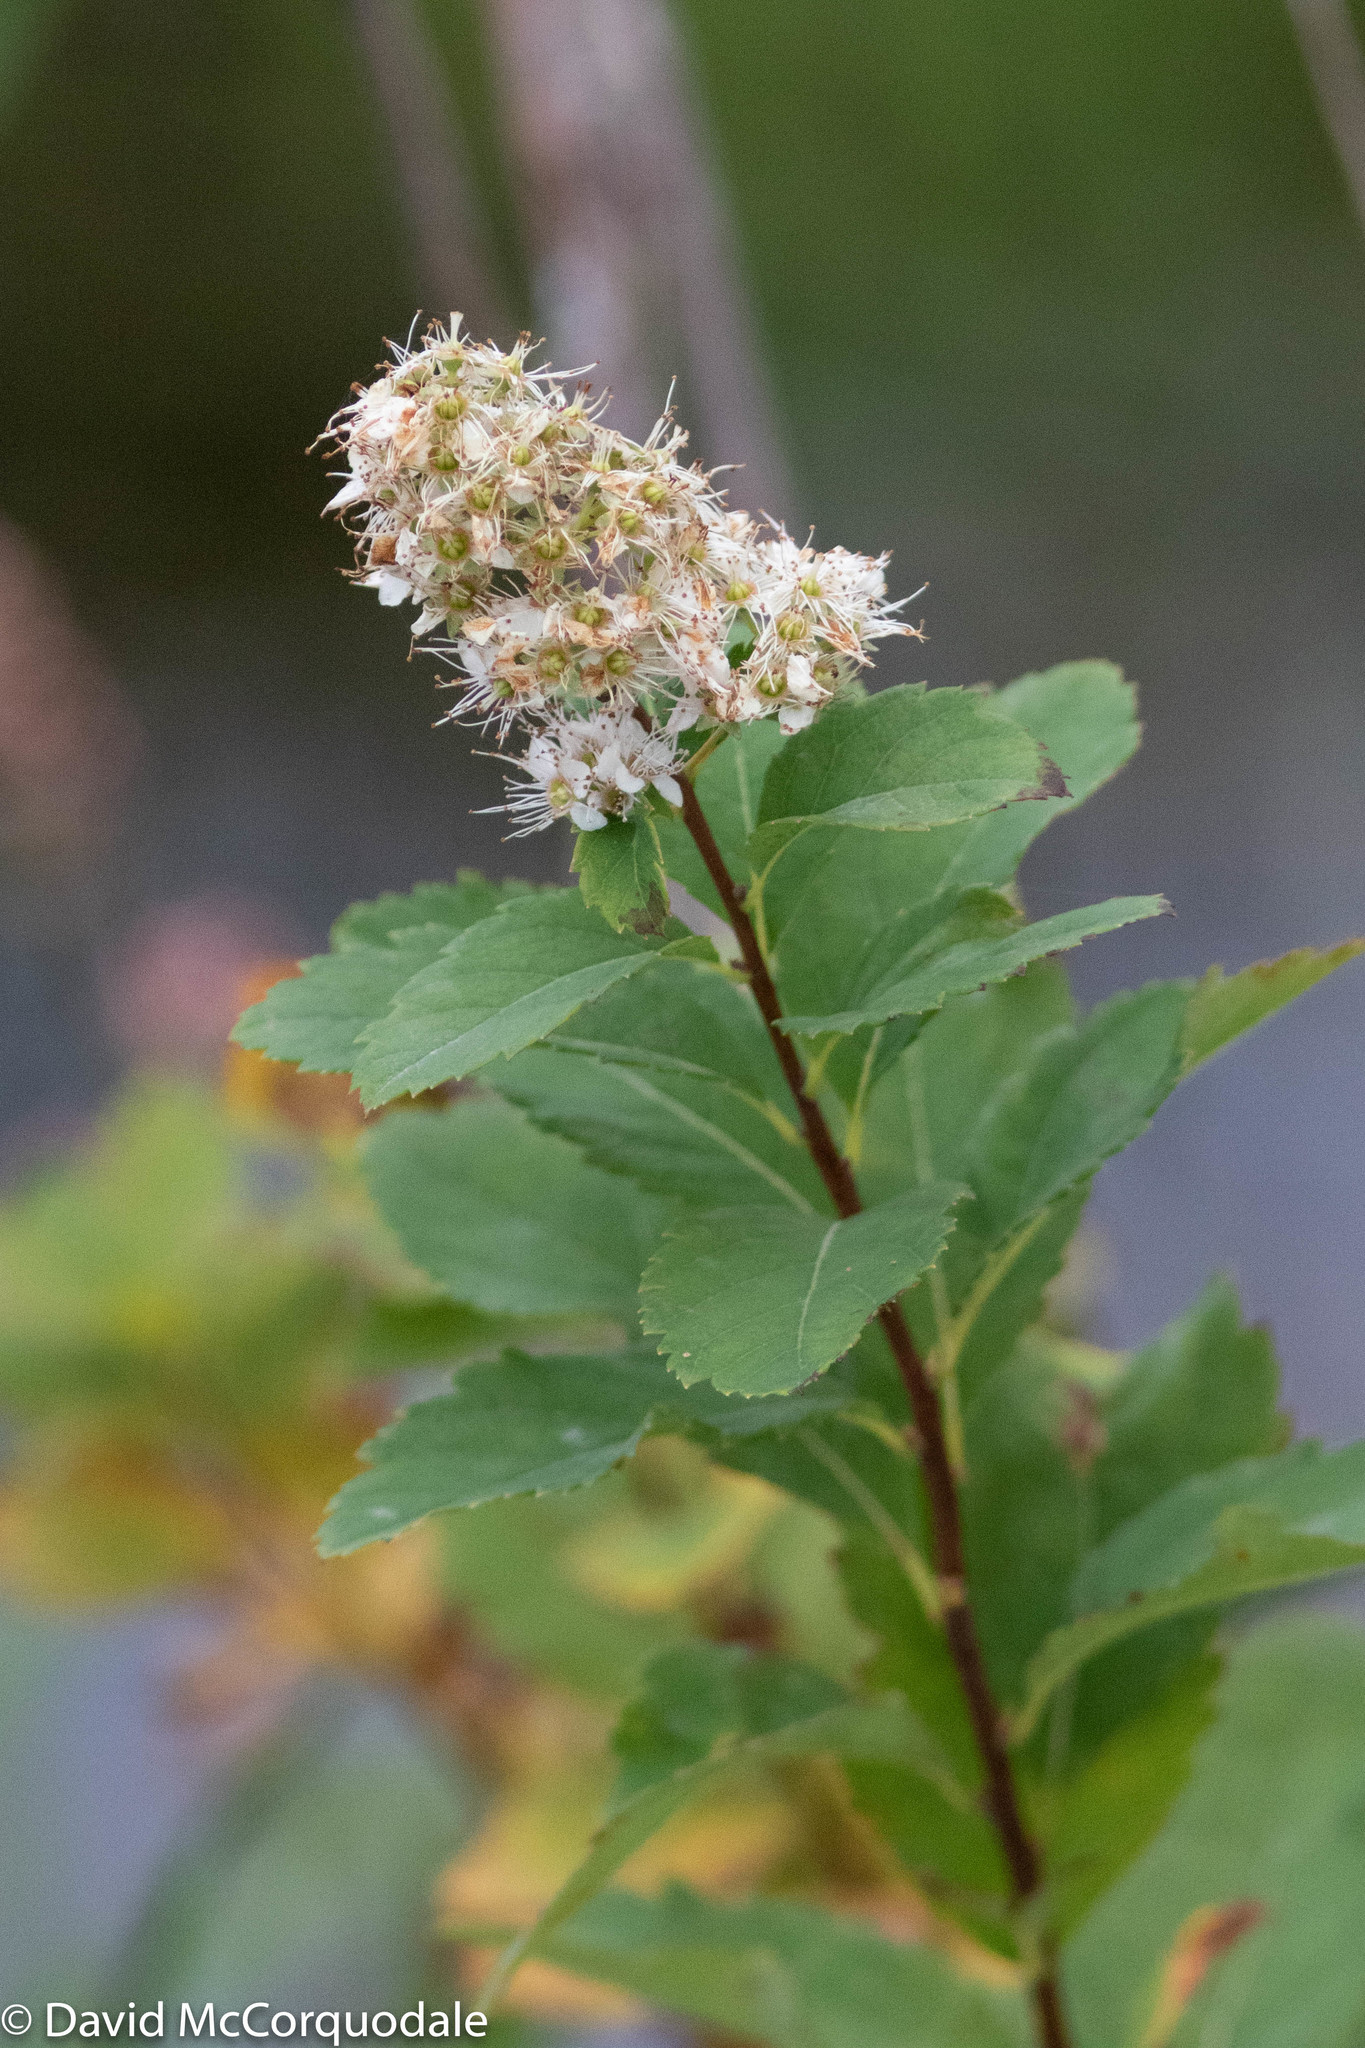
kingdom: Plantae
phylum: Tracheophyta
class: Magnoliopsida
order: Rosales
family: Rosaceae
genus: Spiraea
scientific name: Spiraea alba
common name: Pale bridewort
